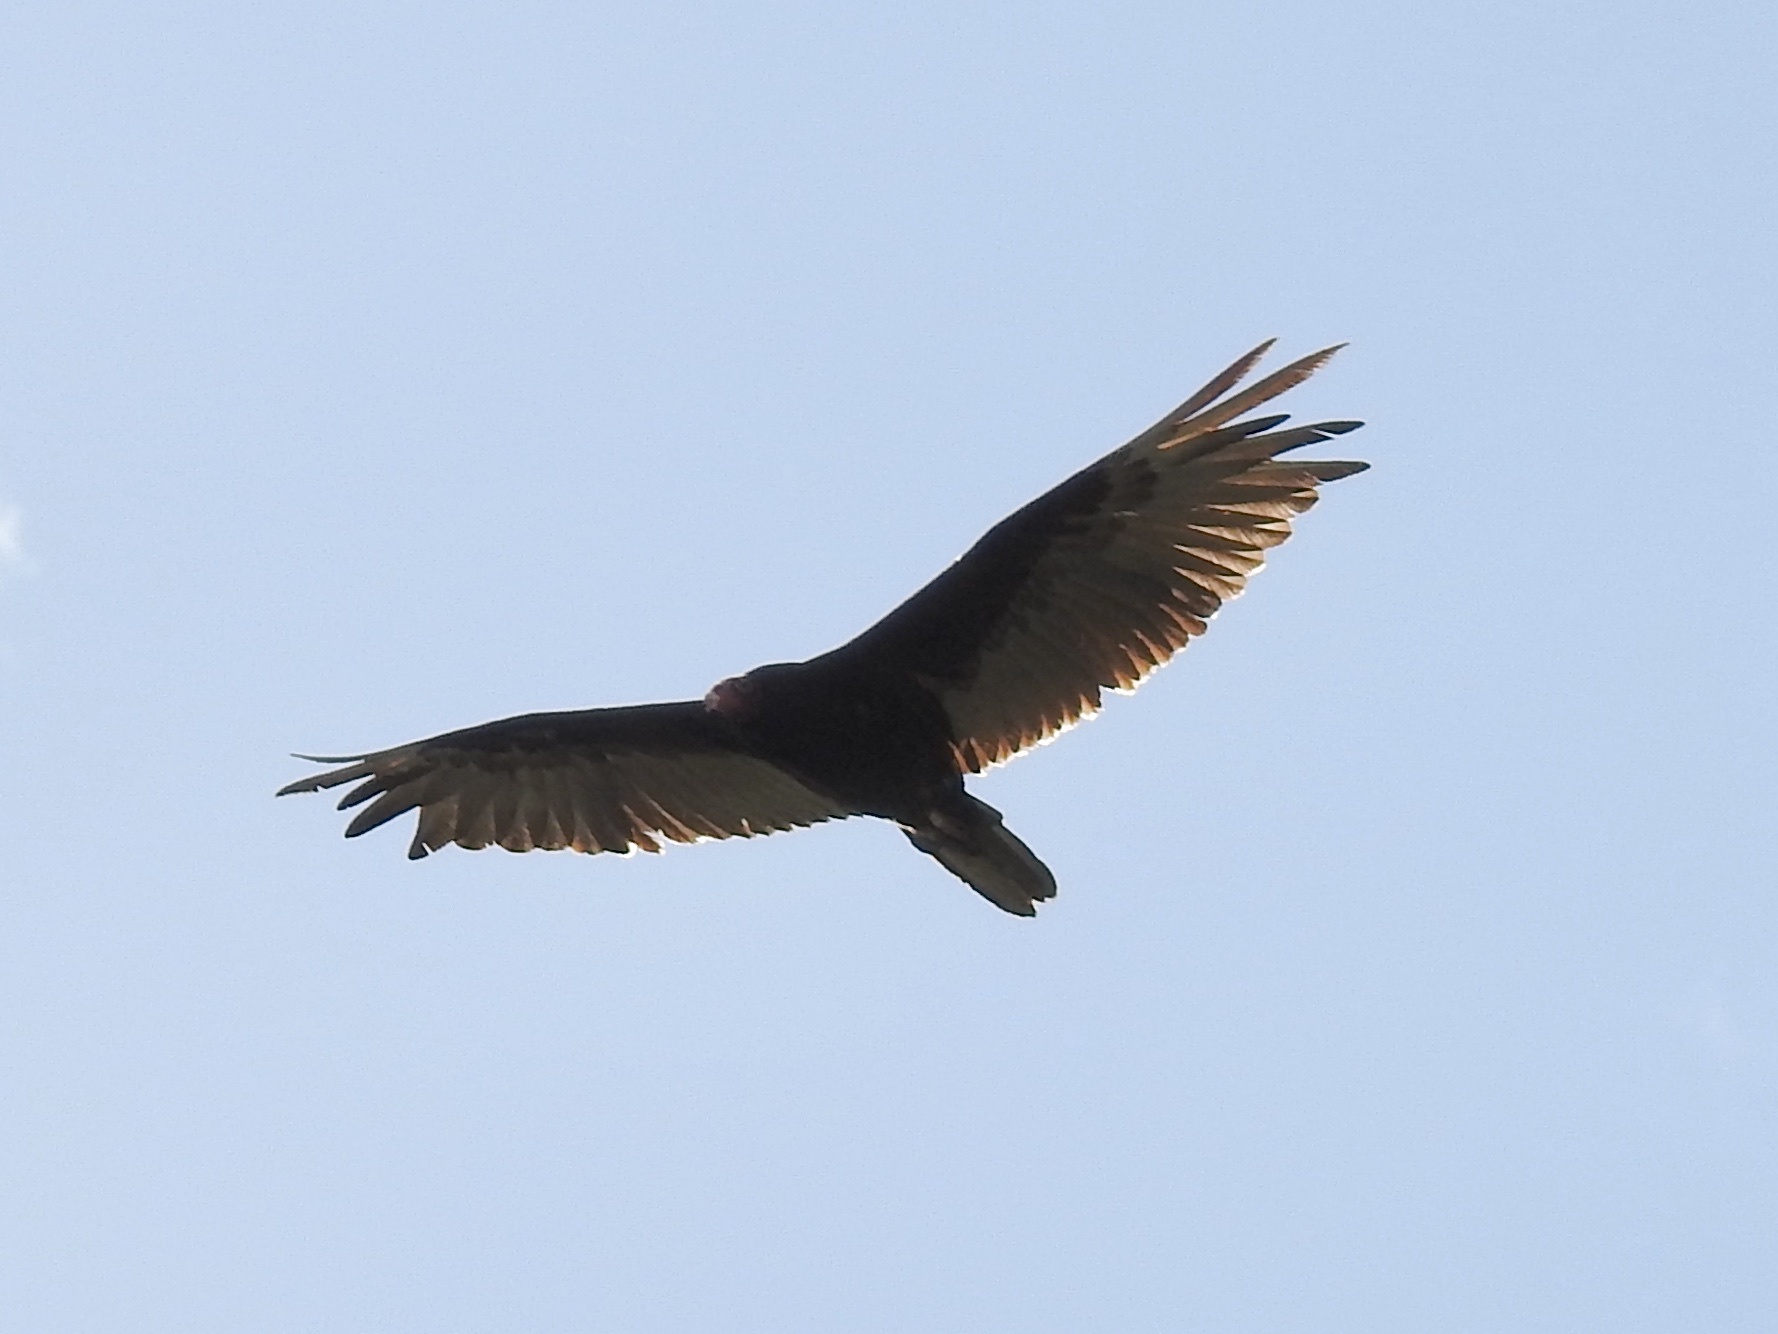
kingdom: Animalia
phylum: Chordata
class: Aves
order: Accipitriformes
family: Cathartidae
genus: Cathartes
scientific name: Cathartes aura
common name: Turkey vulture
